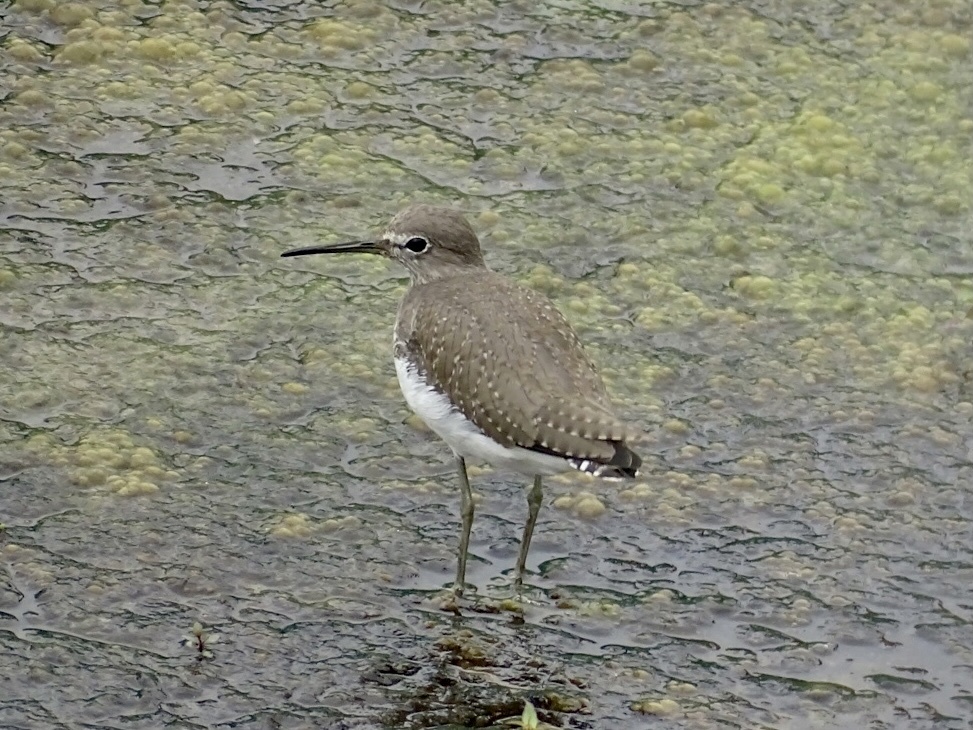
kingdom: Animalia
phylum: Chordata
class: Aves
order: Charadriiformes
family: Scolopacidae
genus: Tringa
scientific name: Tringa ochropus
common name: Green sandpiper
